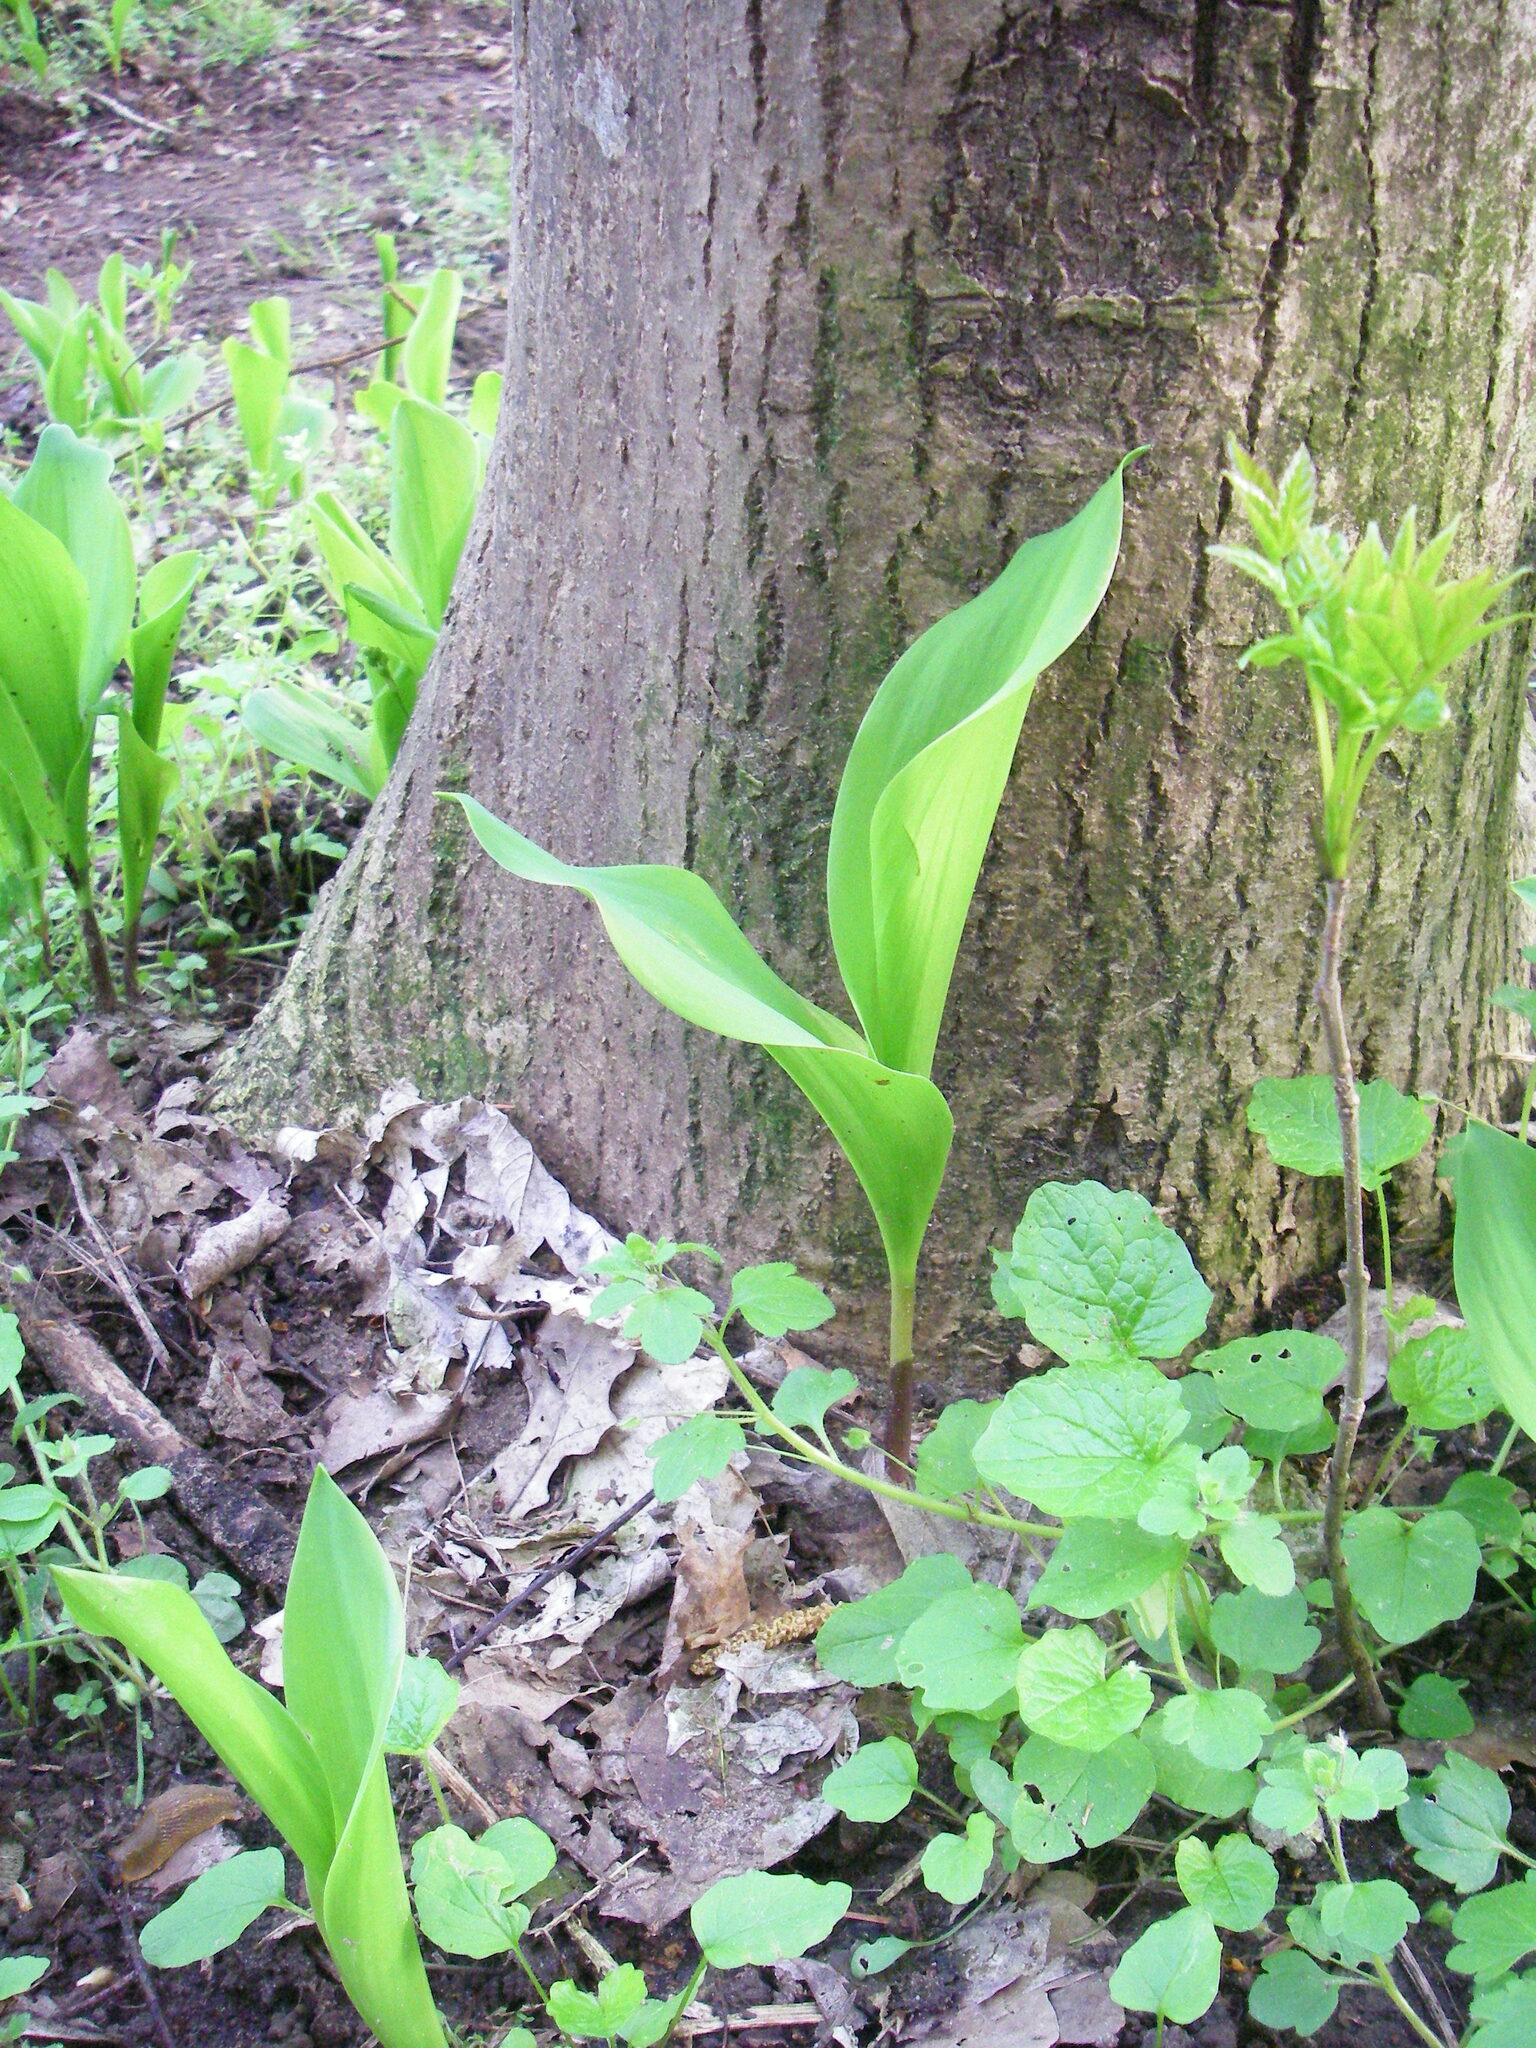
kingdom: Plantae
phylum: Tracheophyta
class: Liliopsida
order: Asparagales
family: Asparagaceae
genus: Convallaria
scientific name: Convallaria majalis
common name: Lily-of-the-valley
